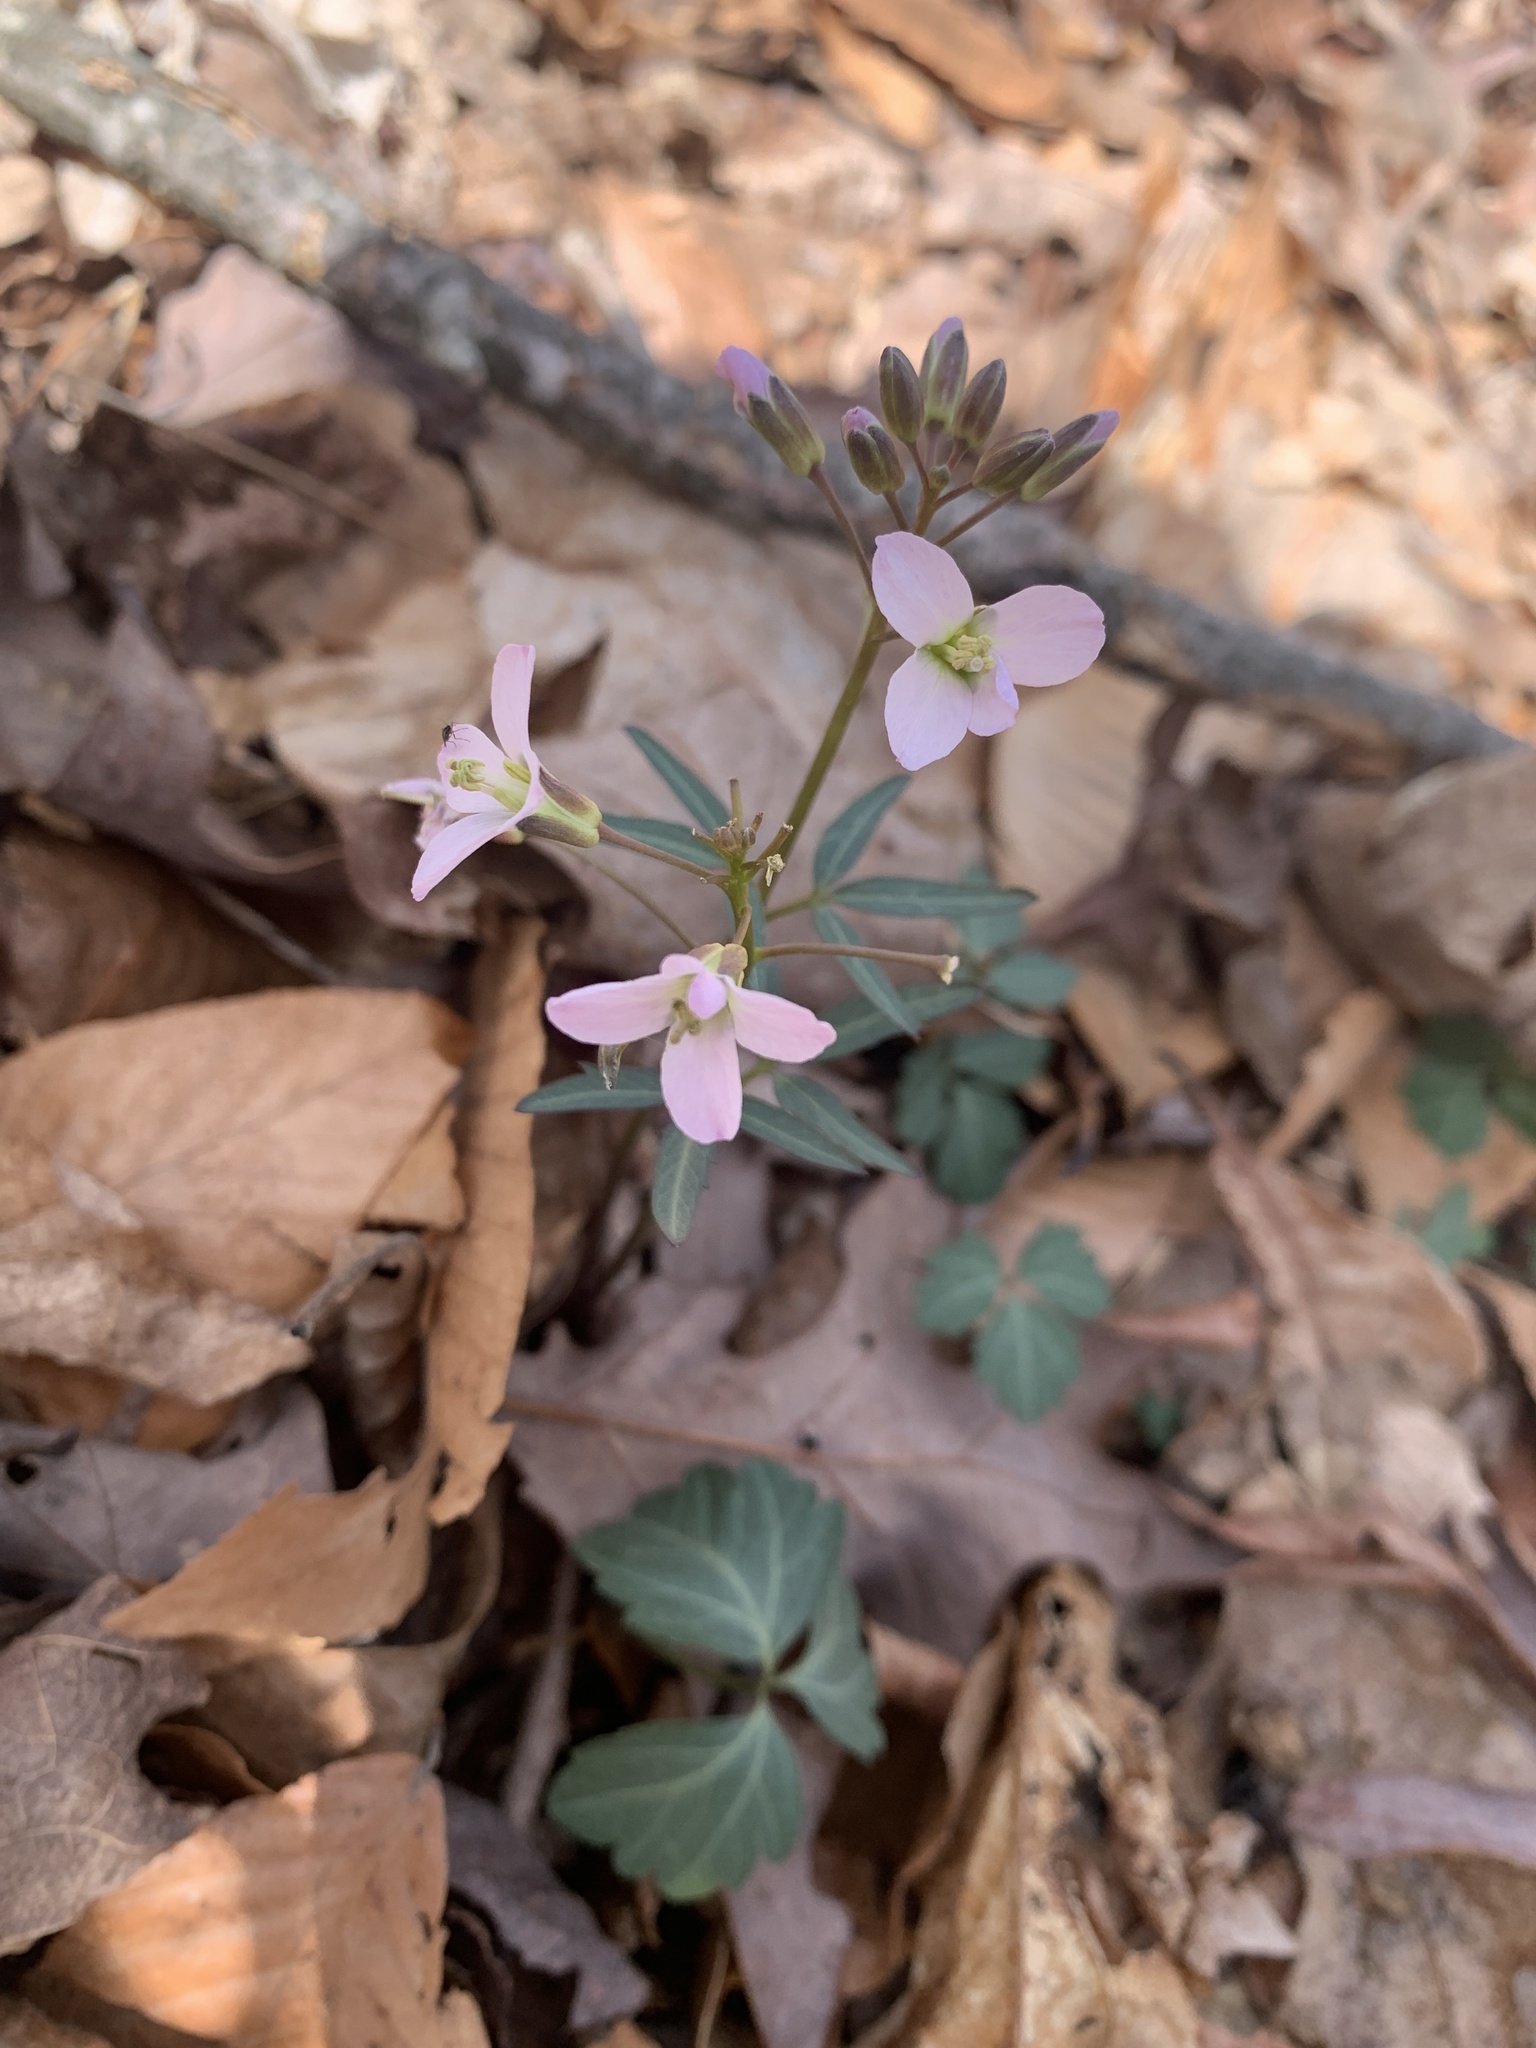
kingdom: Plantae
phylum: Tracheophyta
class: Magnoliopsida
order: Brassicales
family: Brassicaceae
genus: Cardamine
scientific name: Cardamine angustata
